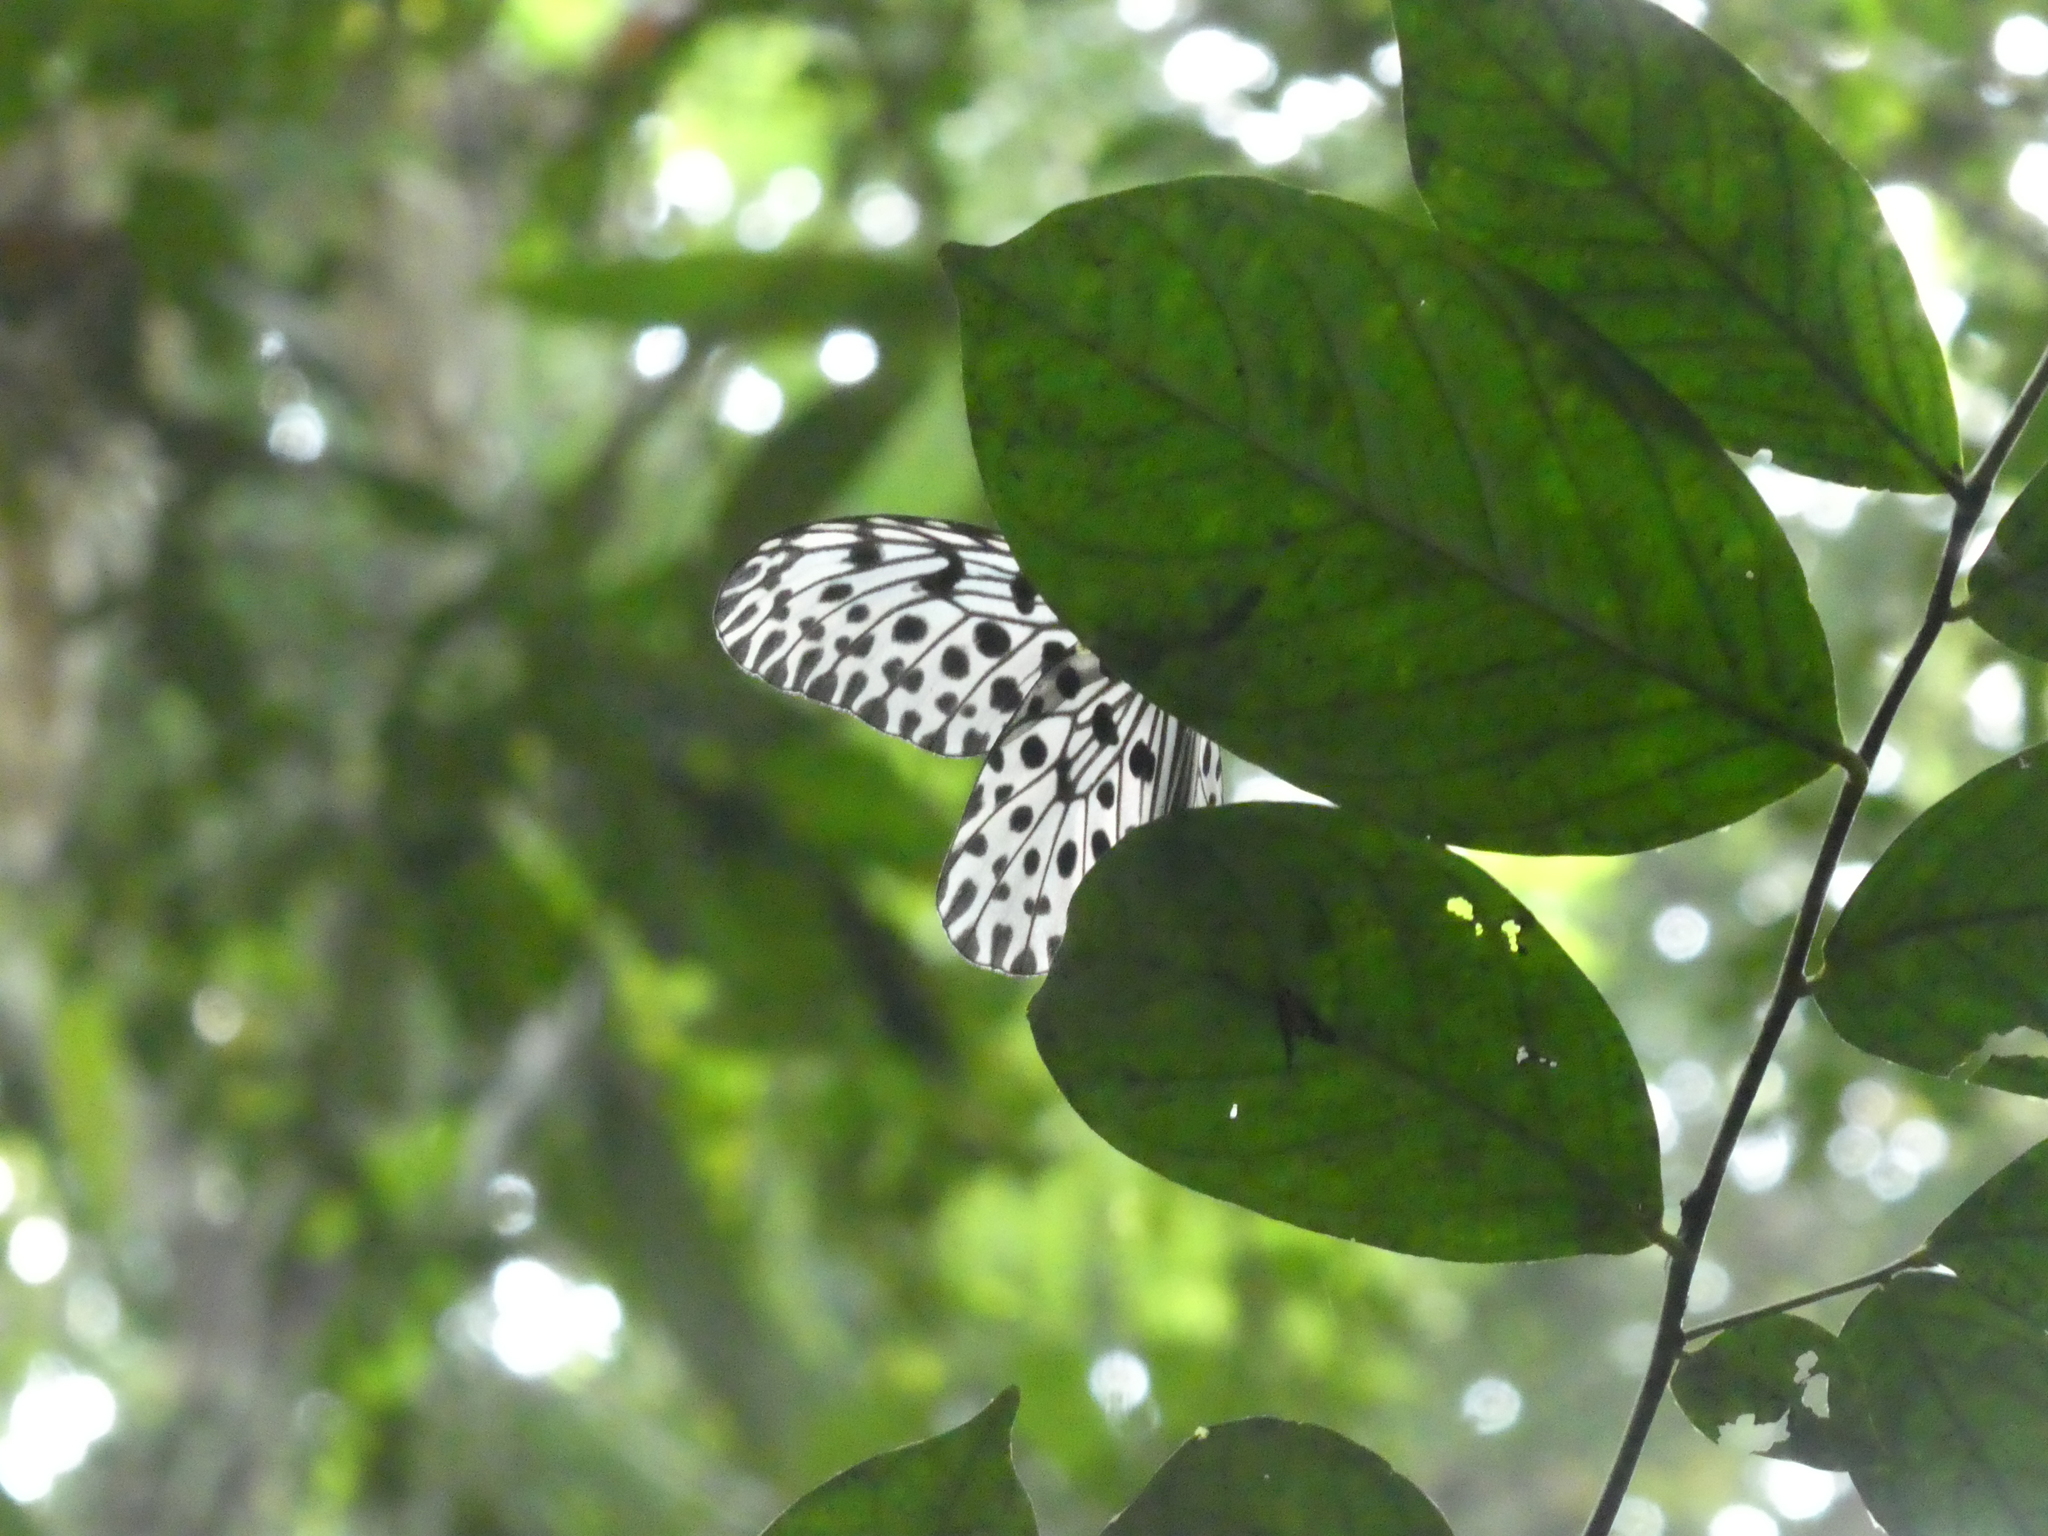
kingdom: Animalia
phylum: Arthropoda
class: Insecta
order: Lepidoptera
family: Nymphalidae
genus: Idea
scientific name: Idea stolli
